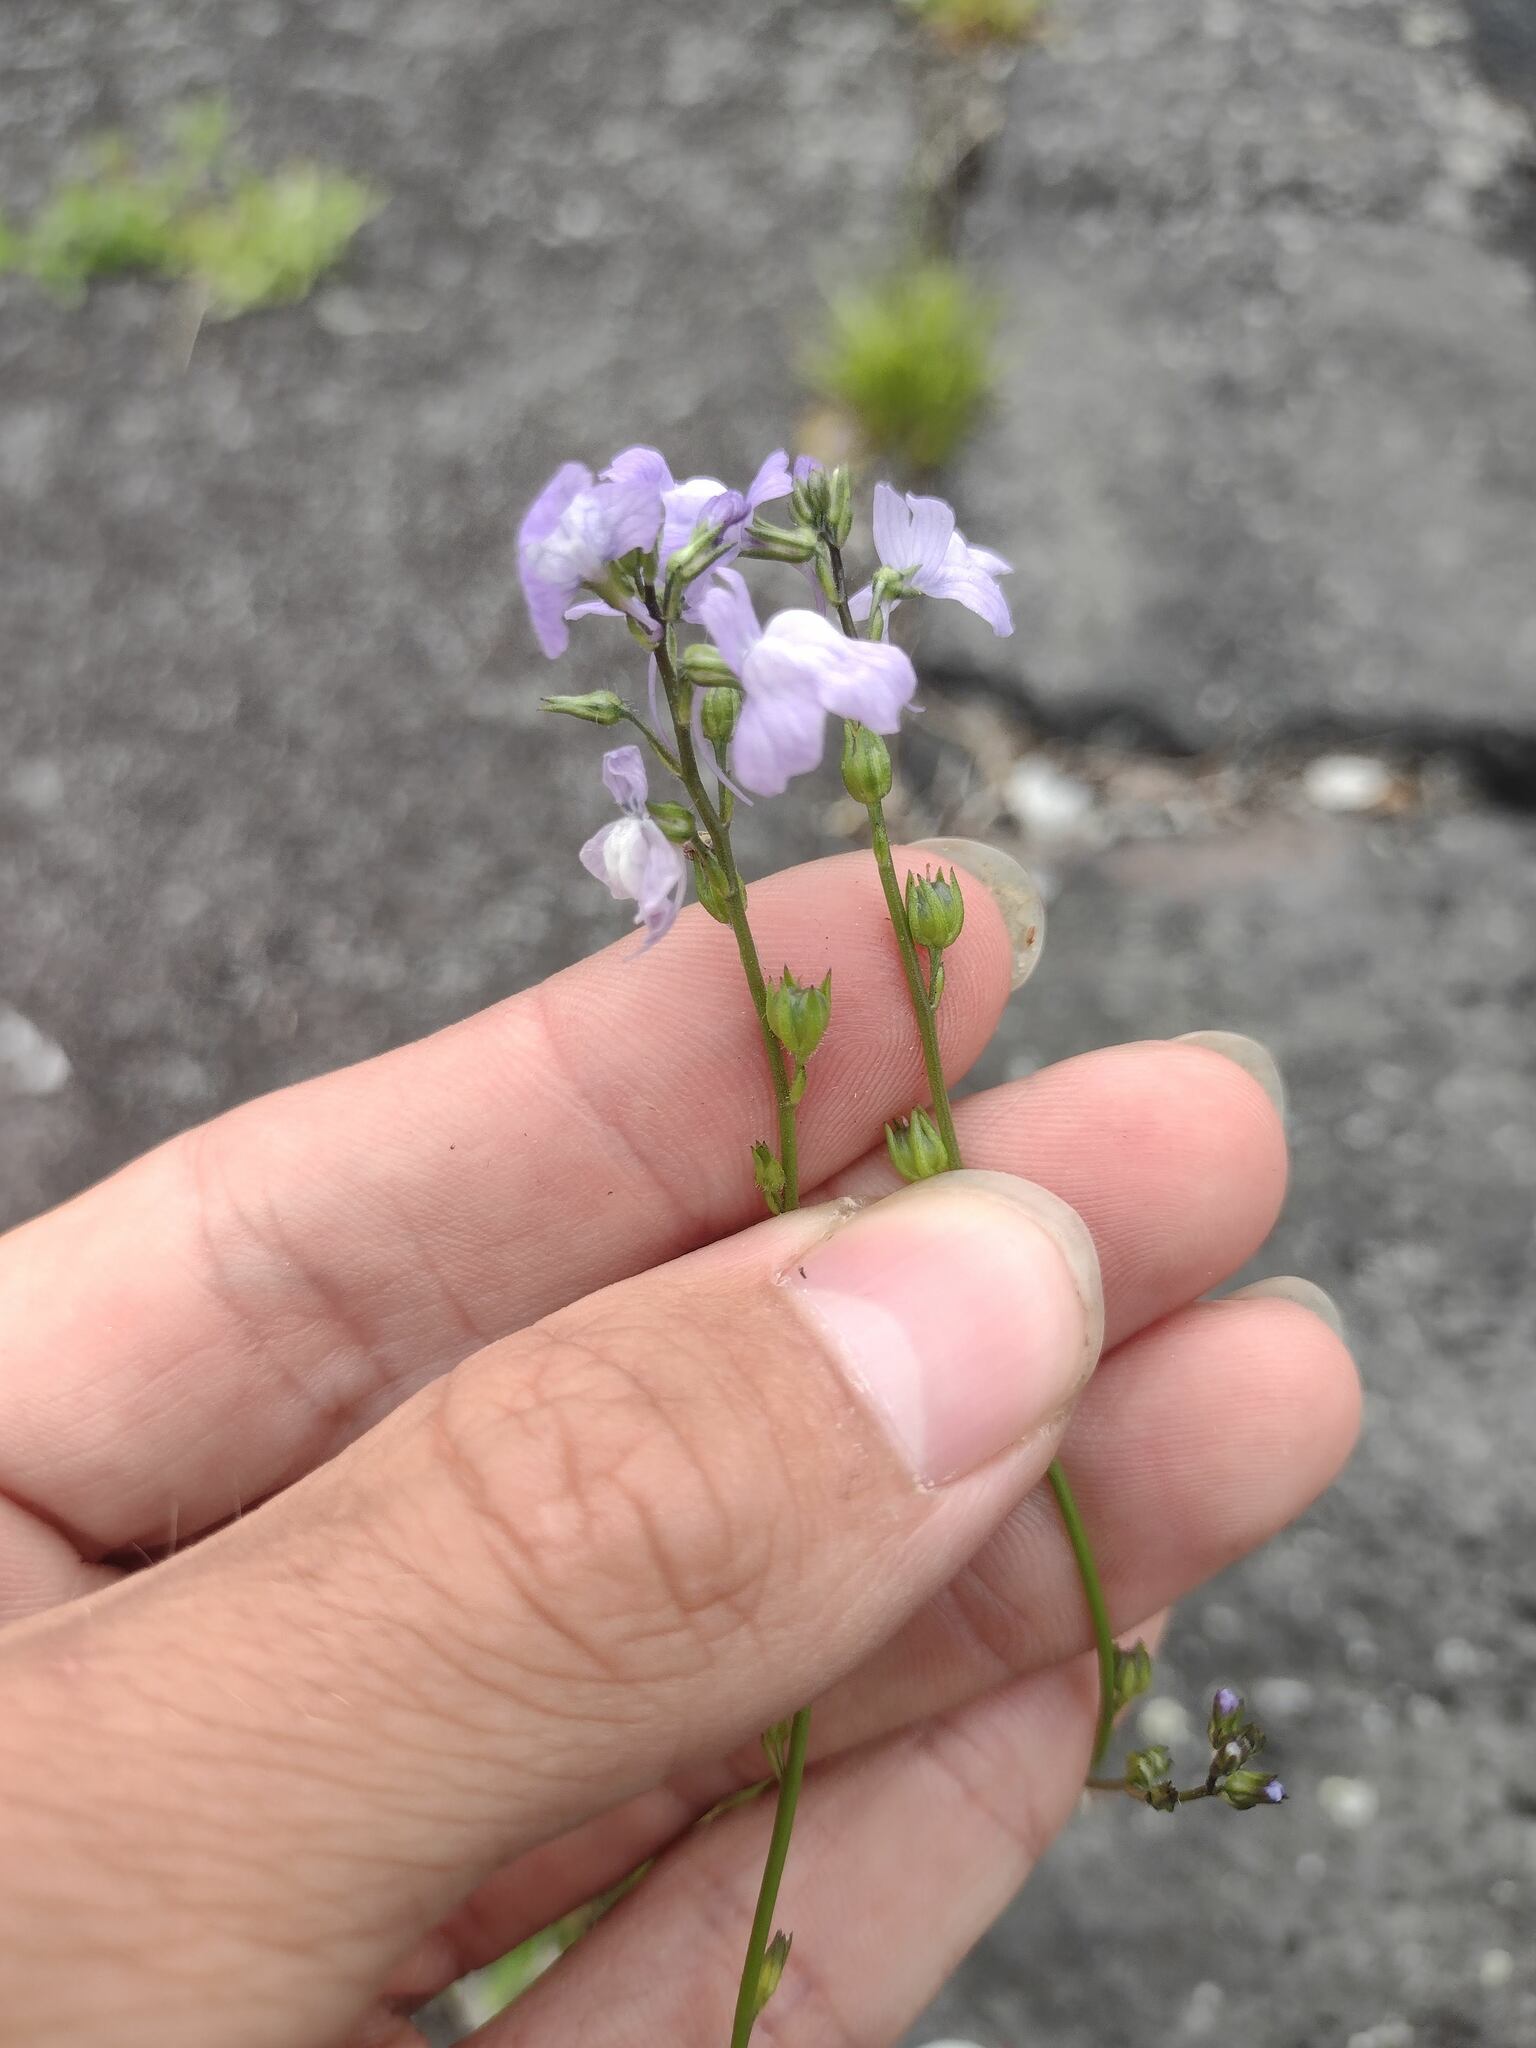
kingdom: Plantae
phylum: Tracheophyta
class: Magnoliopsida
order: Lamiales
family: Plantaginaceae
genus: Nuttallanthus
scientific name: Nuttallanthus texanus
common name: Texas toadflax
